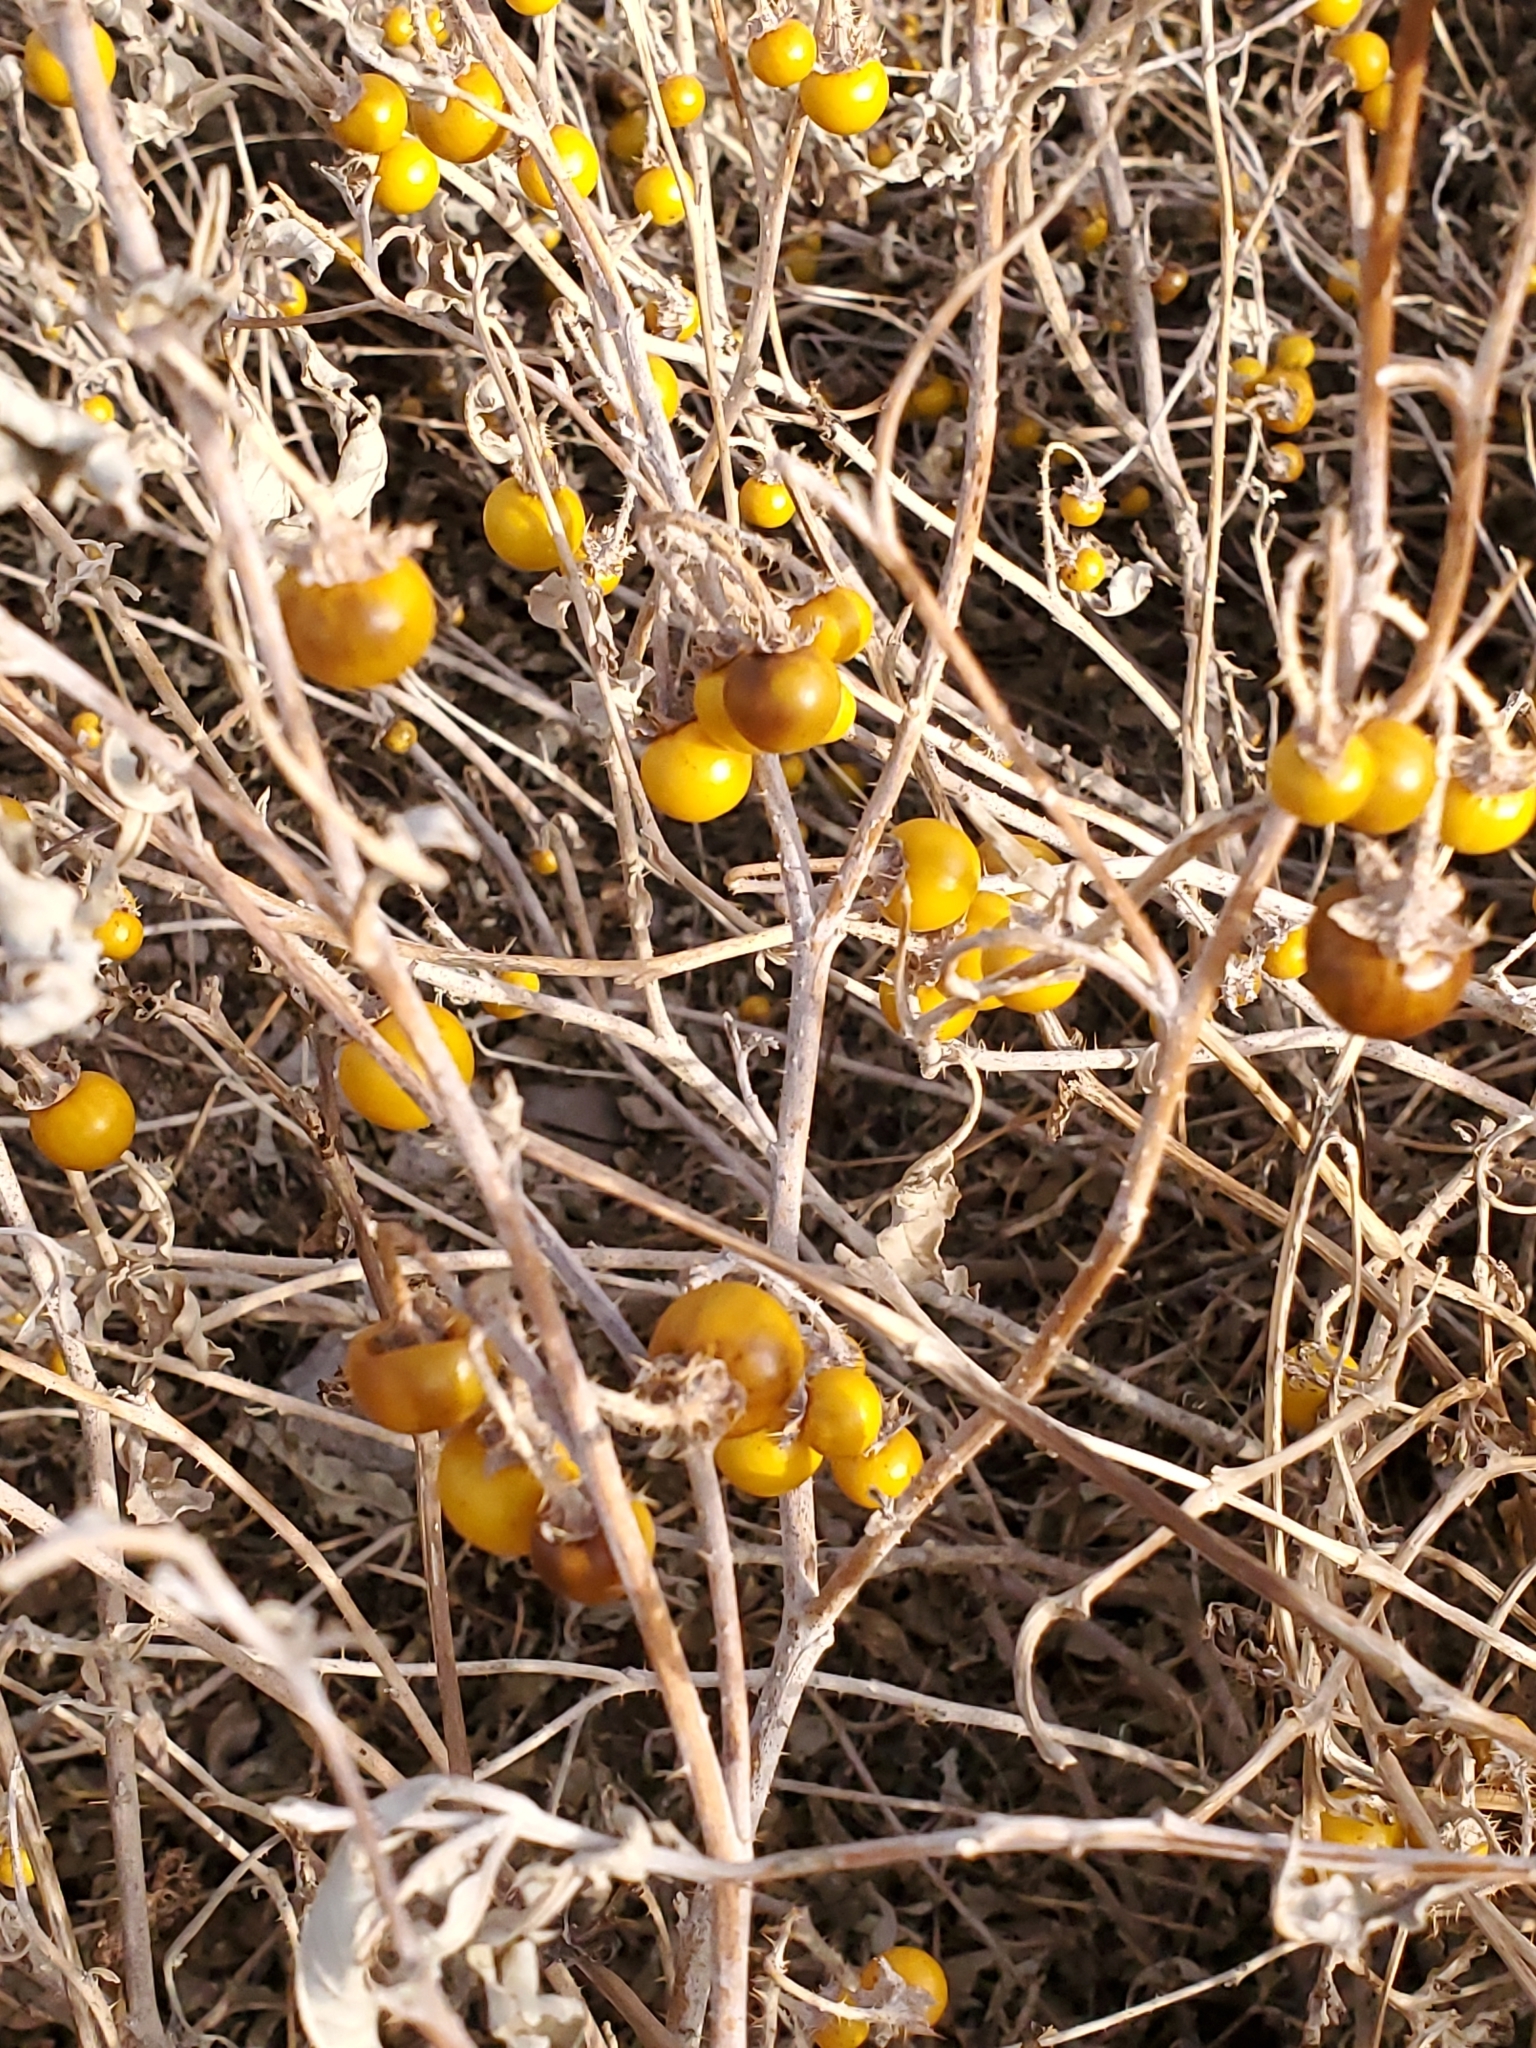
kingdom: Plantae
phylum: Tracheophyta
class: Magnoliopsida
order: Solanales
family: Solanaceae
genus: Solanum
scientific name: Solanum elaeagnifolium
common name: Silverleaf nightshade
